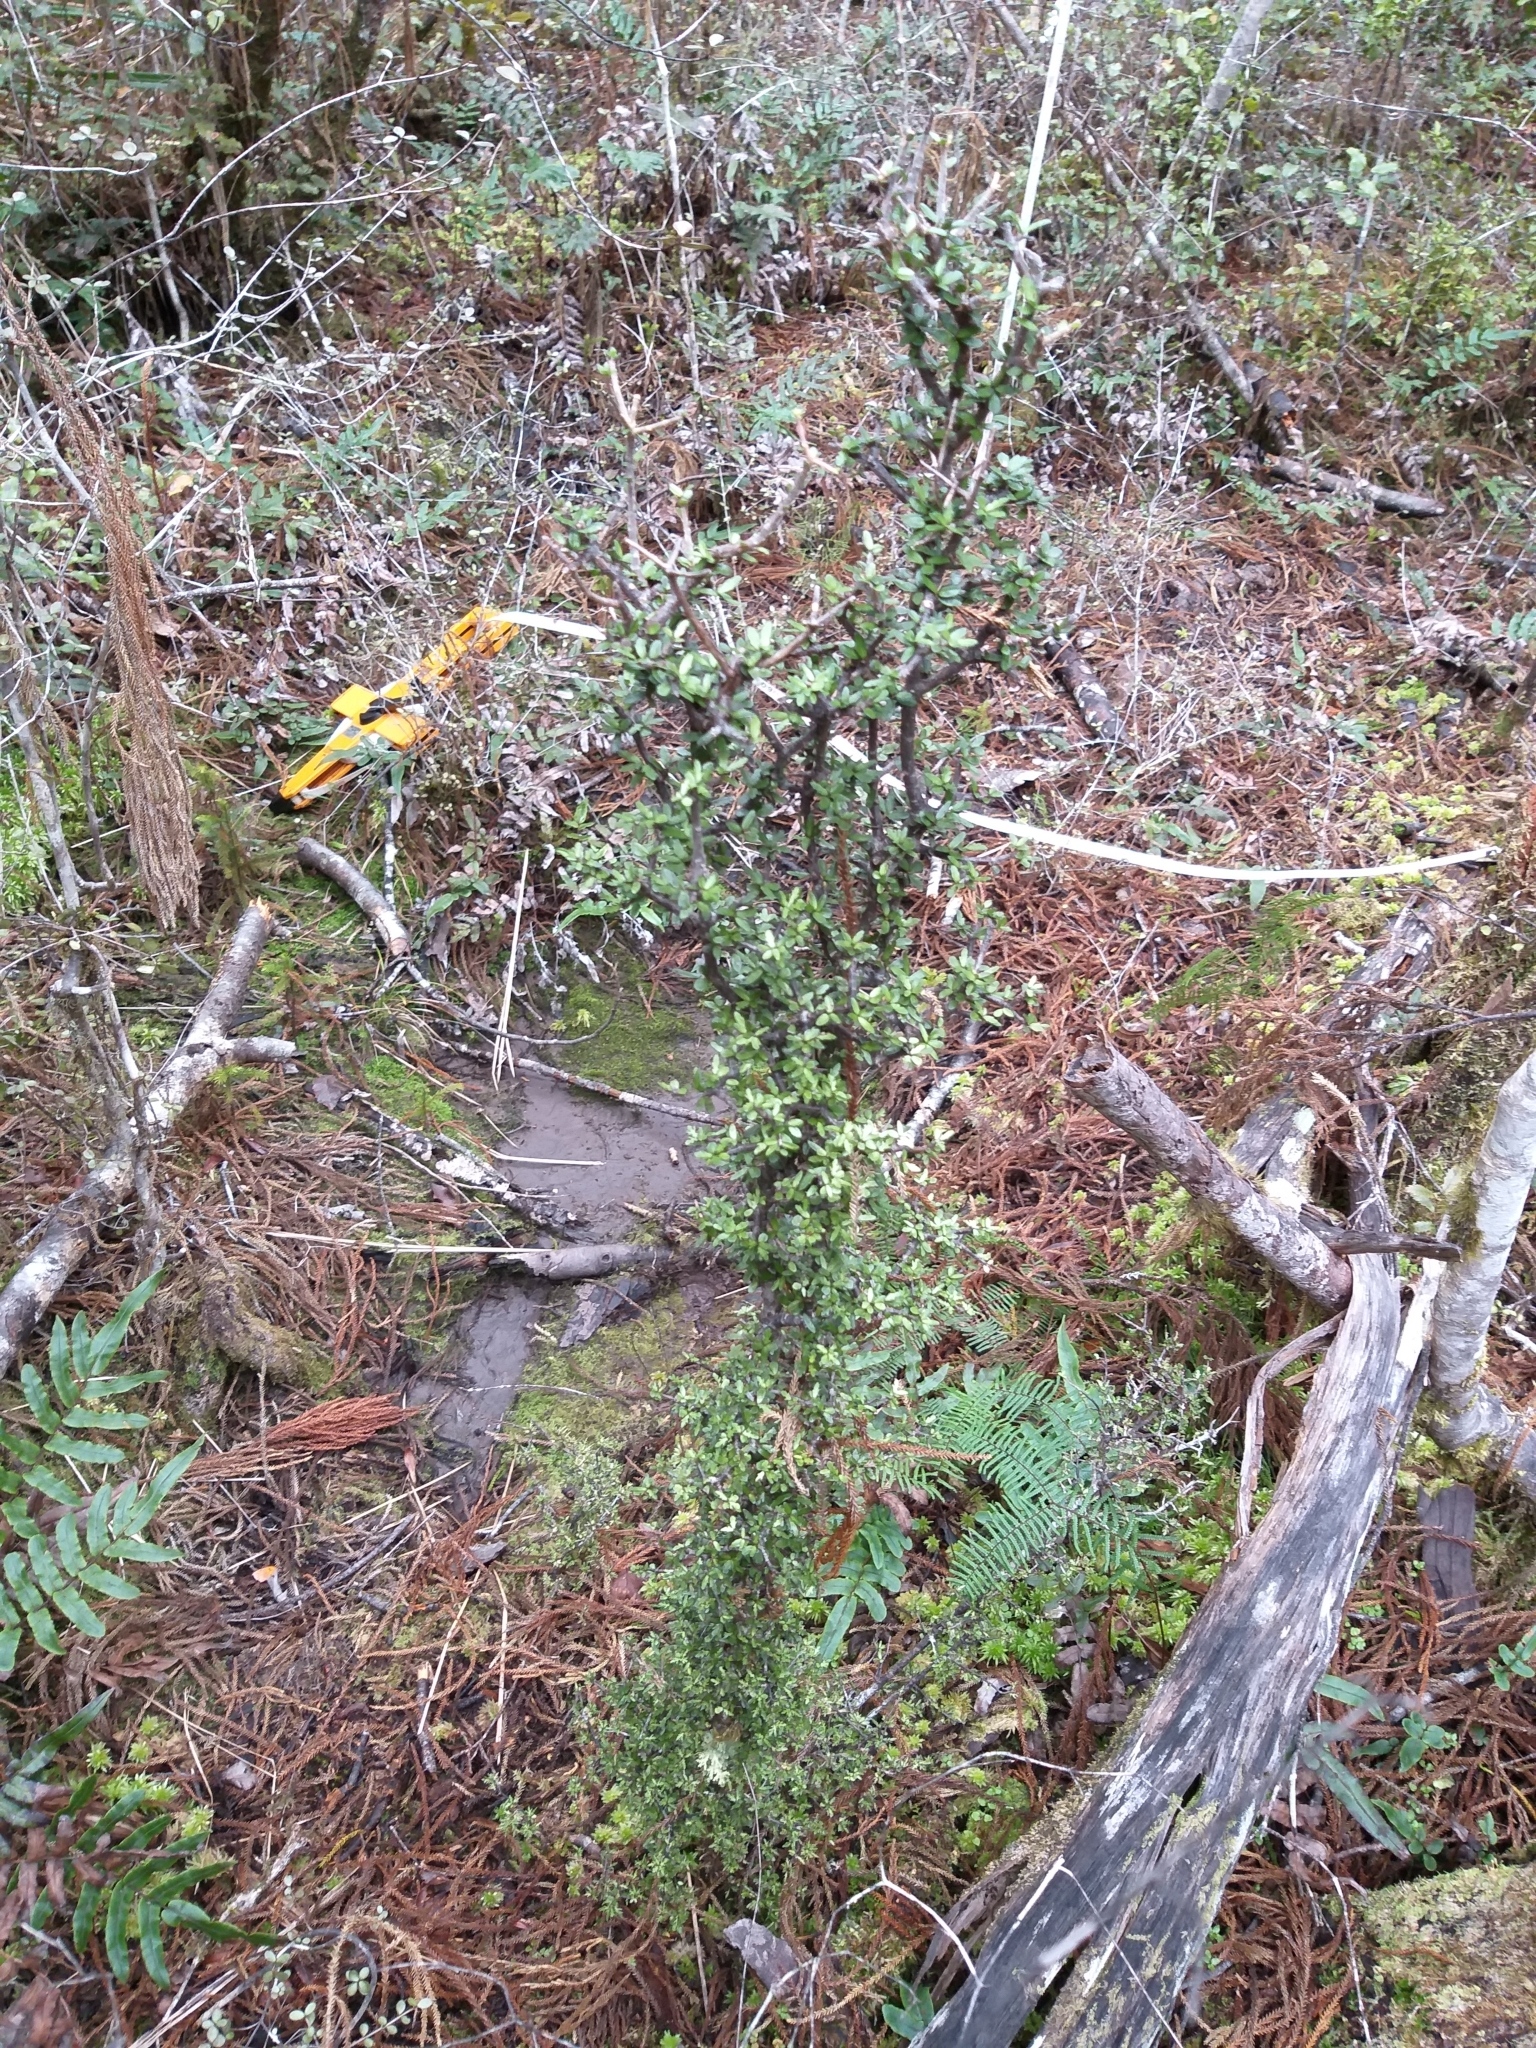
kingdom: Plantae
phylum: Tracheophyta
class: Magnoliopsida
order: Apiales
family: Pittosporaceae
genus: Pittosporum
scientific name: Pittosporum rigidum
